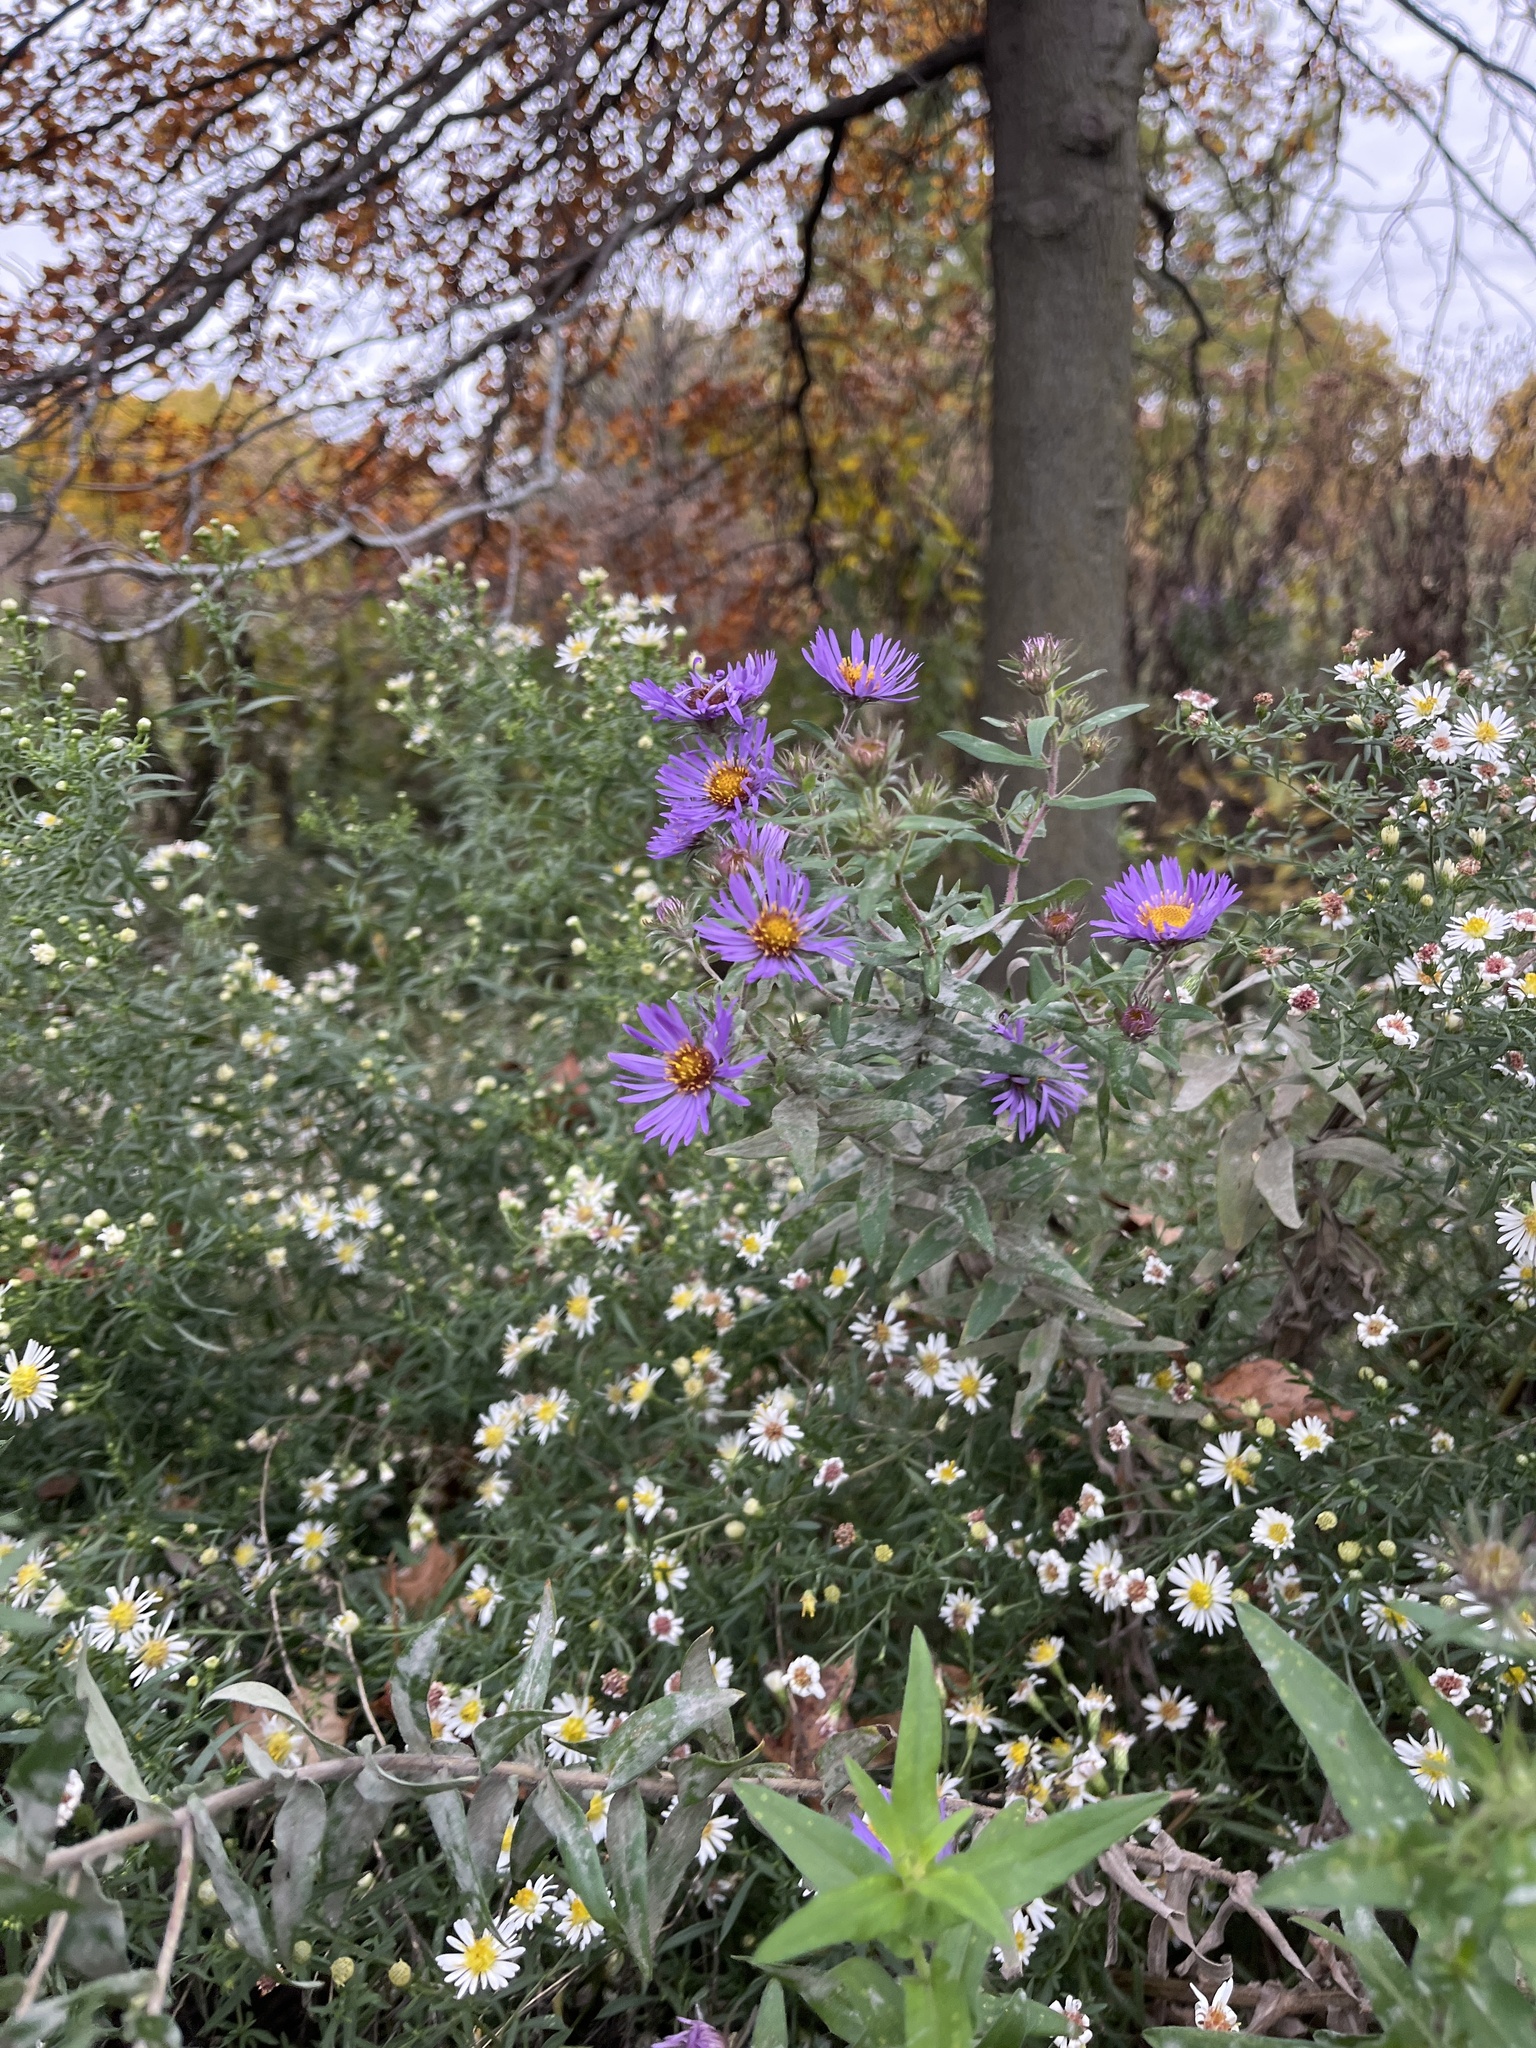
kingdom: Plantae
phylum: Tracheophyta
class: Magnoliopsida
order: Asterales
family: Asteraceae
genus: Symphyotrichum
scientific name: Symphyotrichum novae-angliae
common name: Michaelmas daisy
